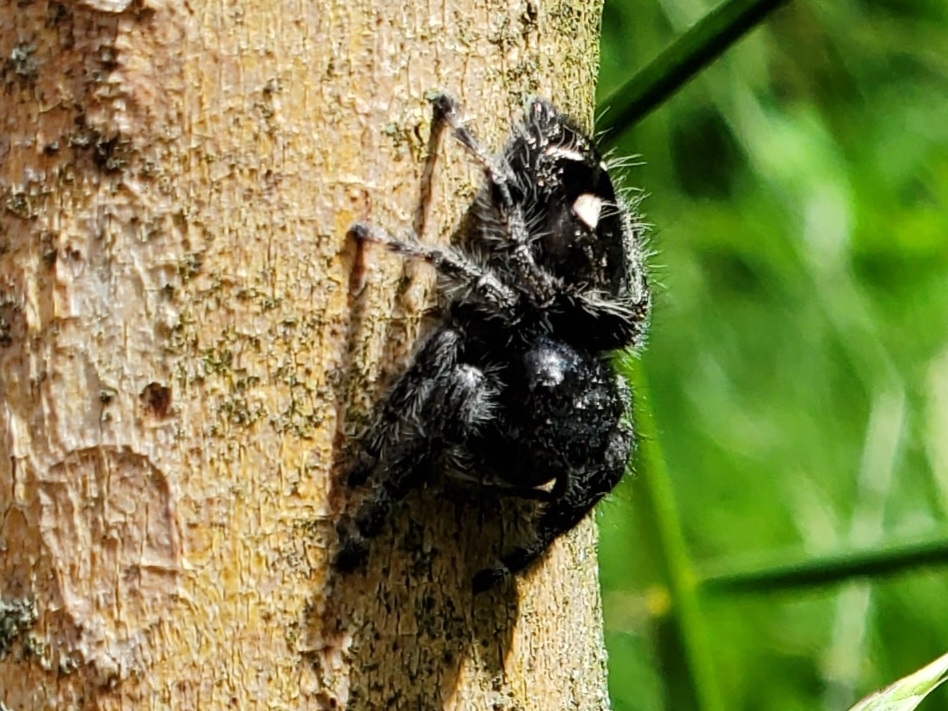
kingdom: Animalia
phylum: Arthropoda
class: Arachnida
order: Araneae
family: Salticidae
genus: Phidippus
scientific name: Phidippus audax
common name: Bold jumper
